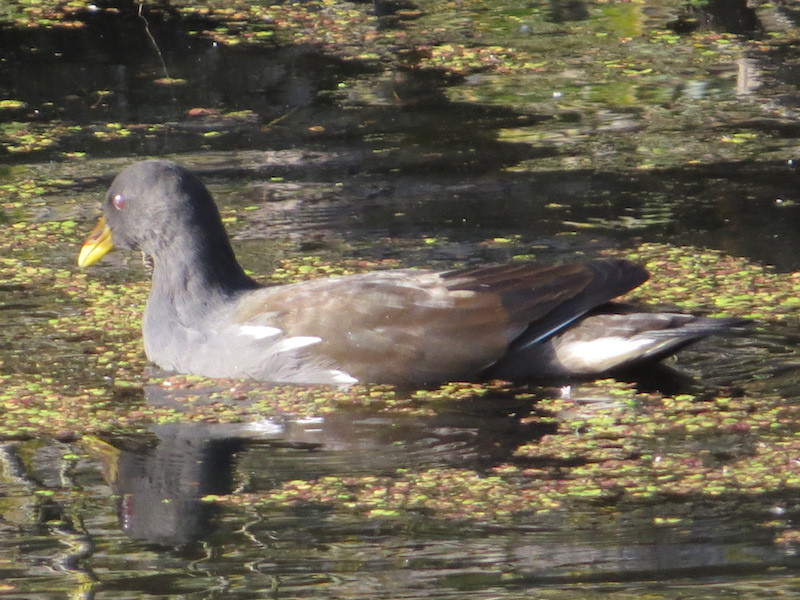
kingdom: Animalia
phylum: Chordata
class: Aves
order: Gruiformes
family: Rallidae
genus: Gallinula
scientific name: Gallinula chloropus
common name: Common moorhen
